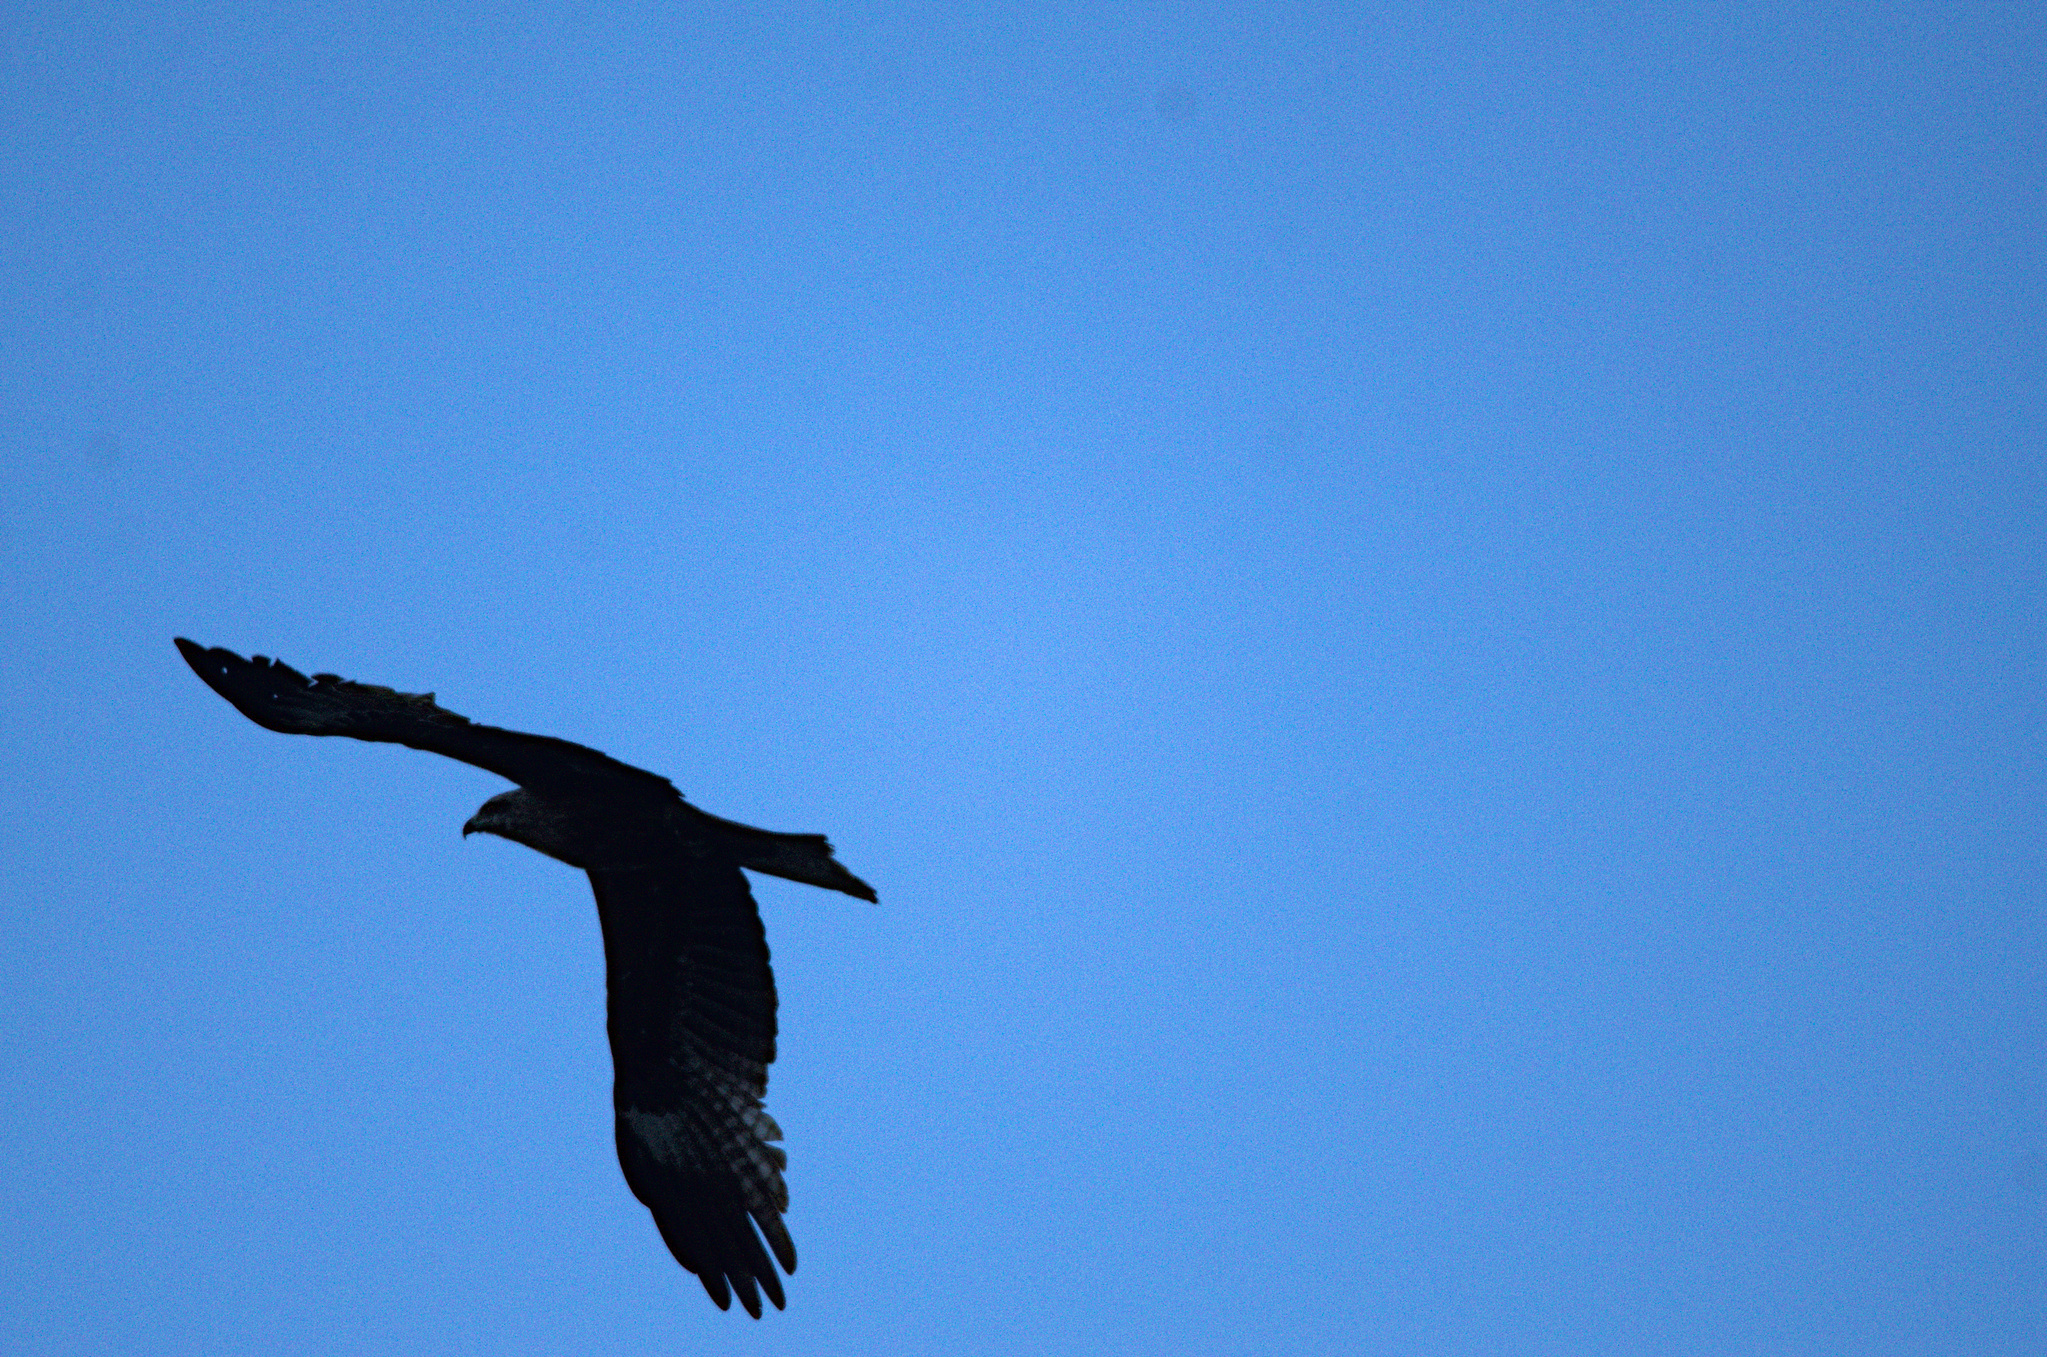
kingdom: Animalia
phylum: Chordata
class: Aves
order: Accipitriformes
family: Accipitridae
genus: Milvus
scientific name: Milvus migrans
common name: Black kite
